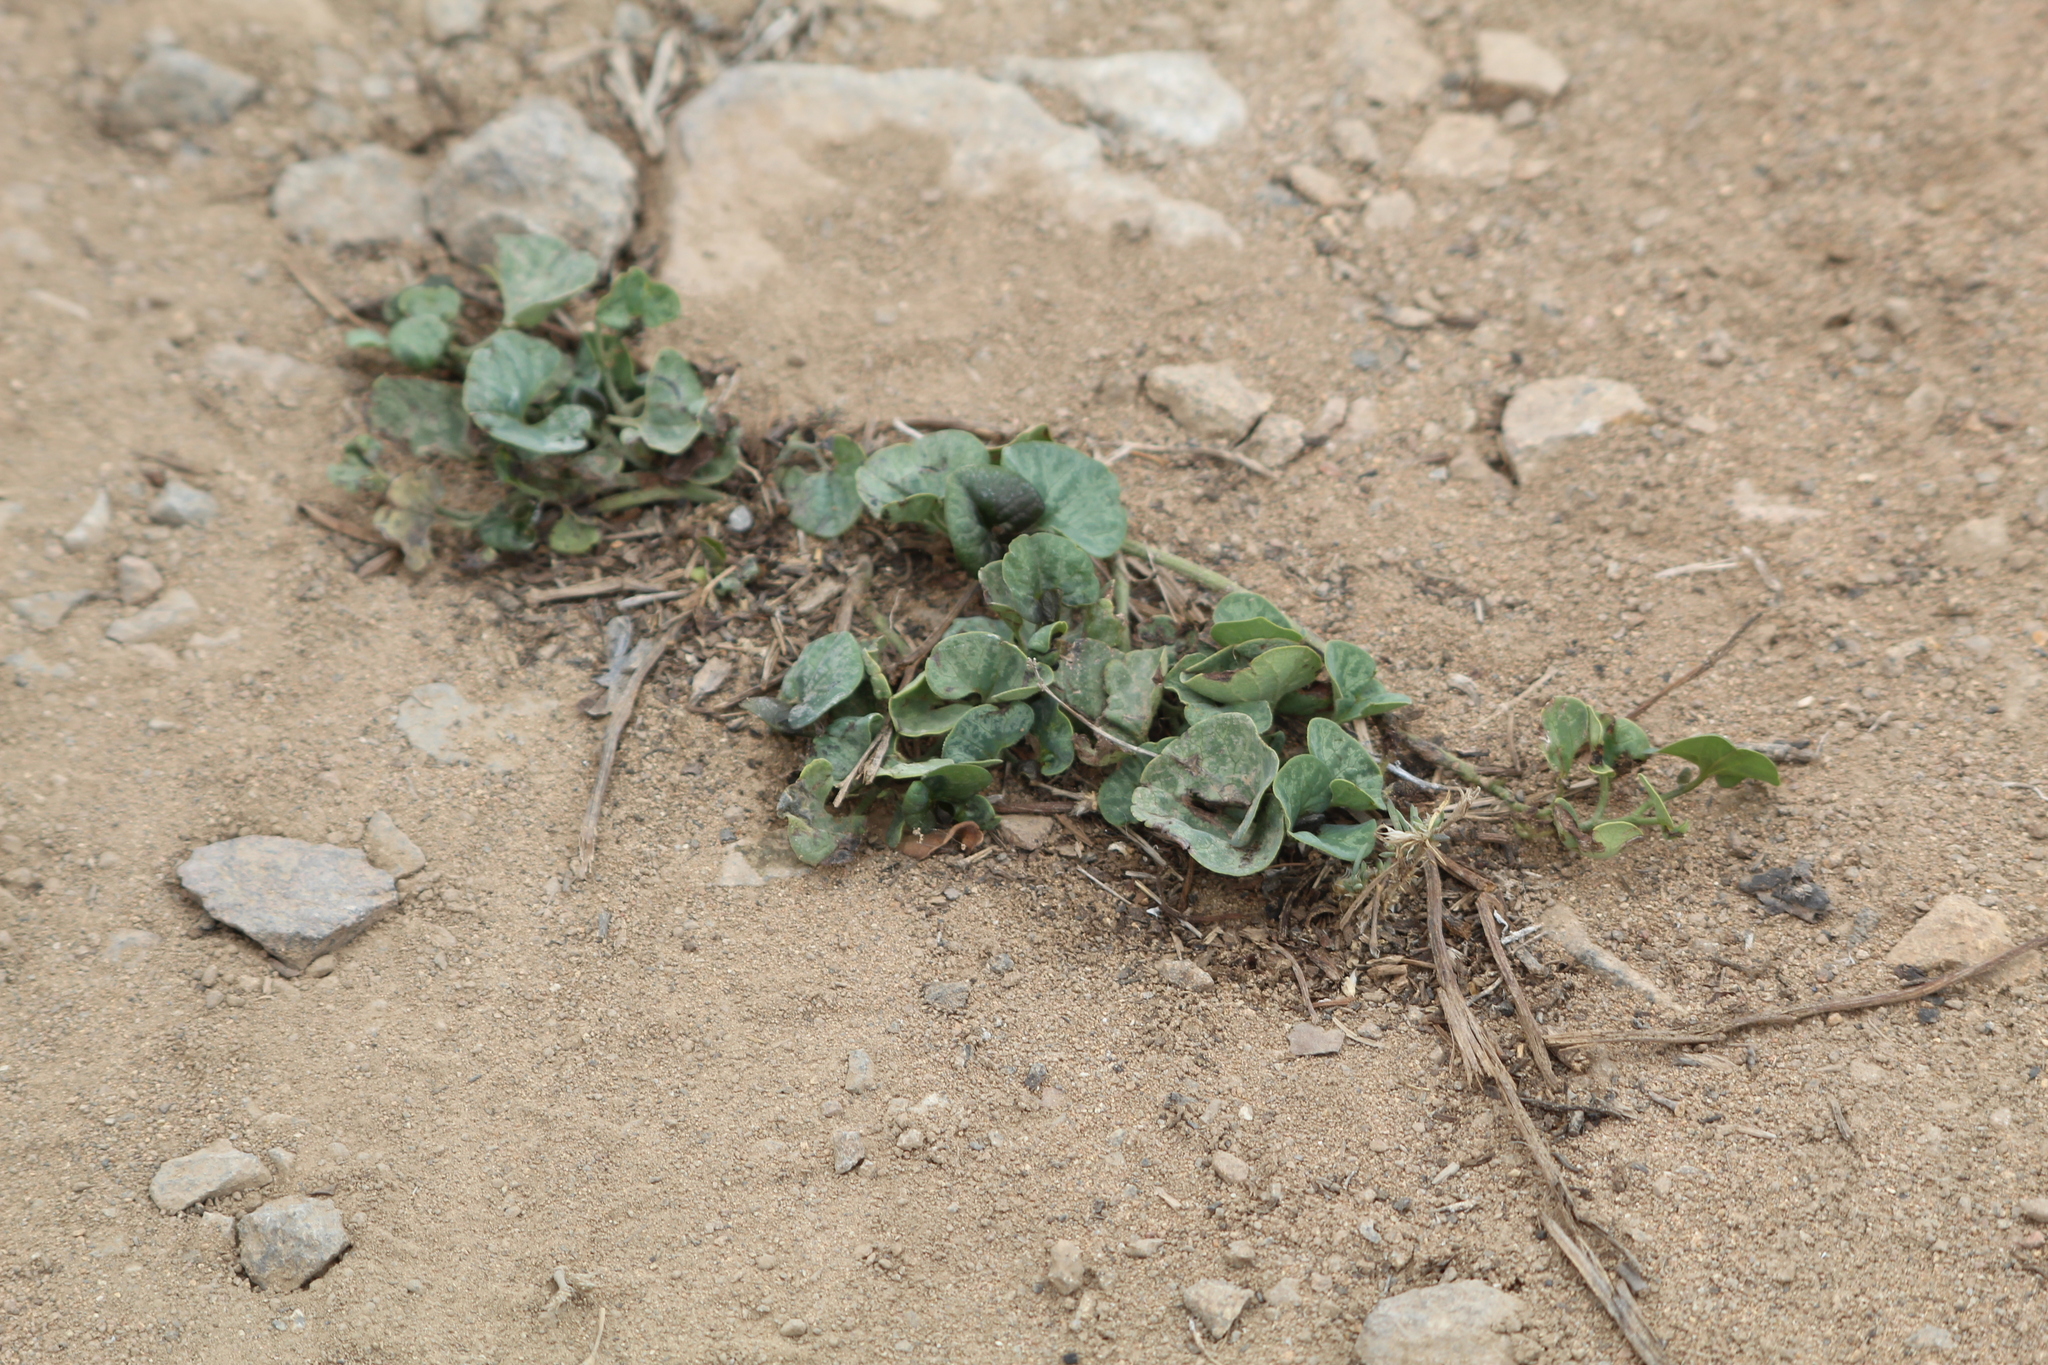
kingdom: Plantae
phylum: Tracheophyta
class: Magnoliopsida
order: Piperales
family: Aristolochiaceae
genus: Aristolochia
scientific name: Aristolochia chilensis
